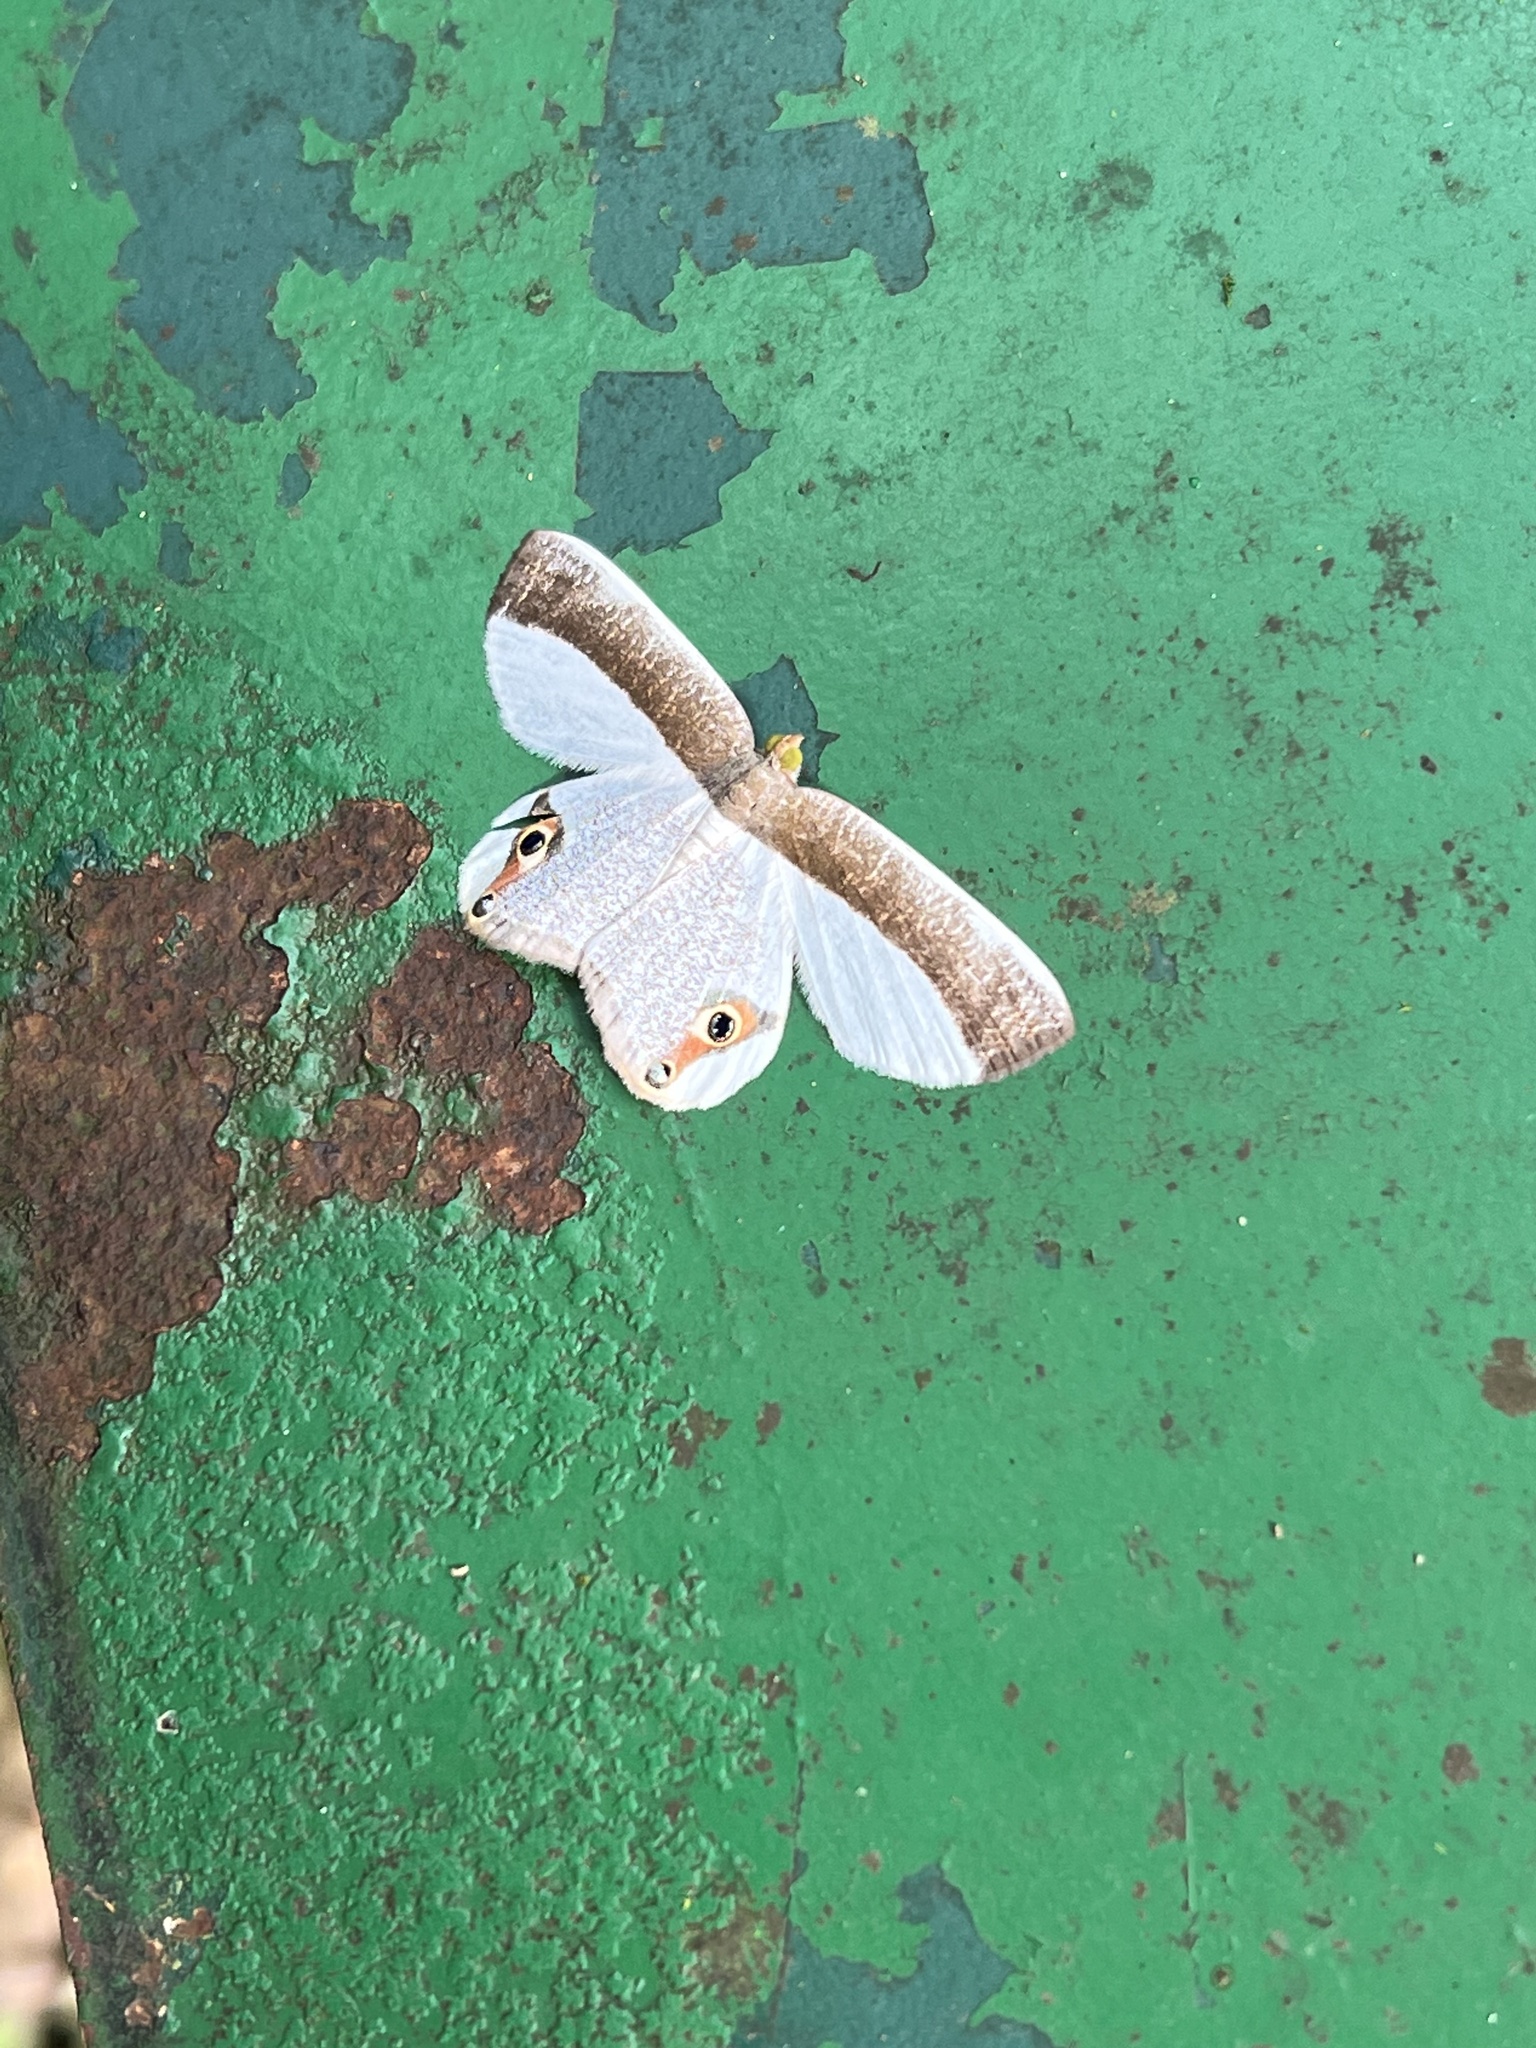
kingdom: Animalia
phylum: Arthropoda
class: Insecta
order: Lepidoptera
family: Geometridae
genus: Opisthoxia
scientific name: Opisthoxia amabilis
